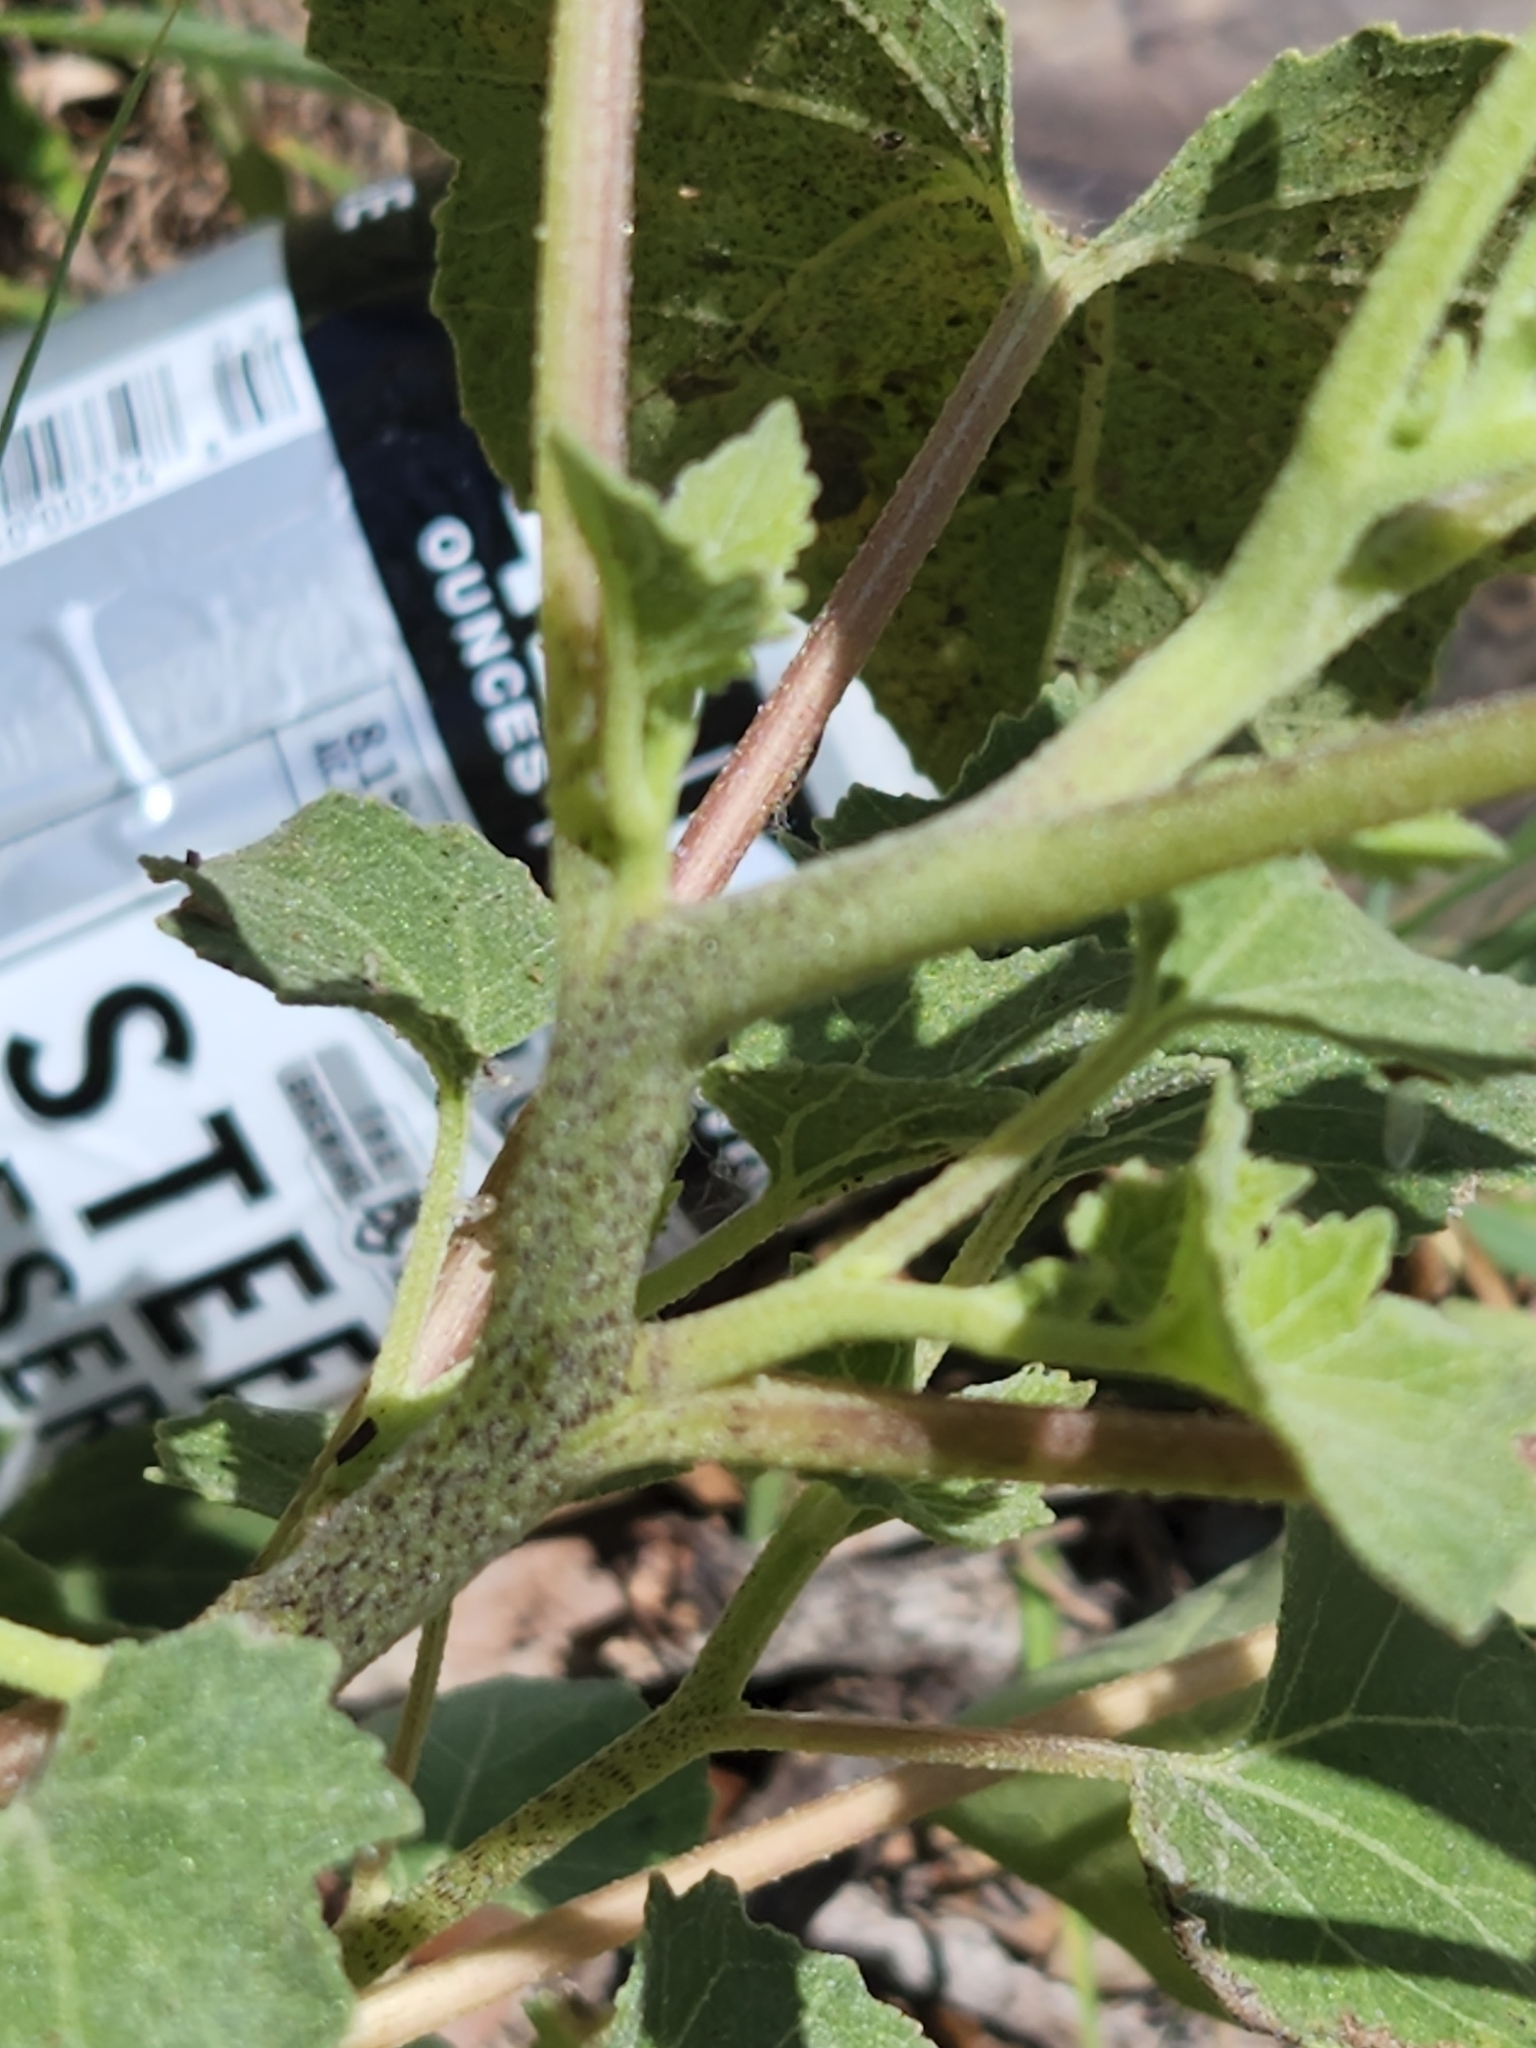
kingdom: Plantae
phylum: Tracheophyta
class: Magnoliopsida
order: Asterales
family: Asteraceae
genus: Xanthium
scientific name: Xanthium strumarium
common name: Rough cocklebur
